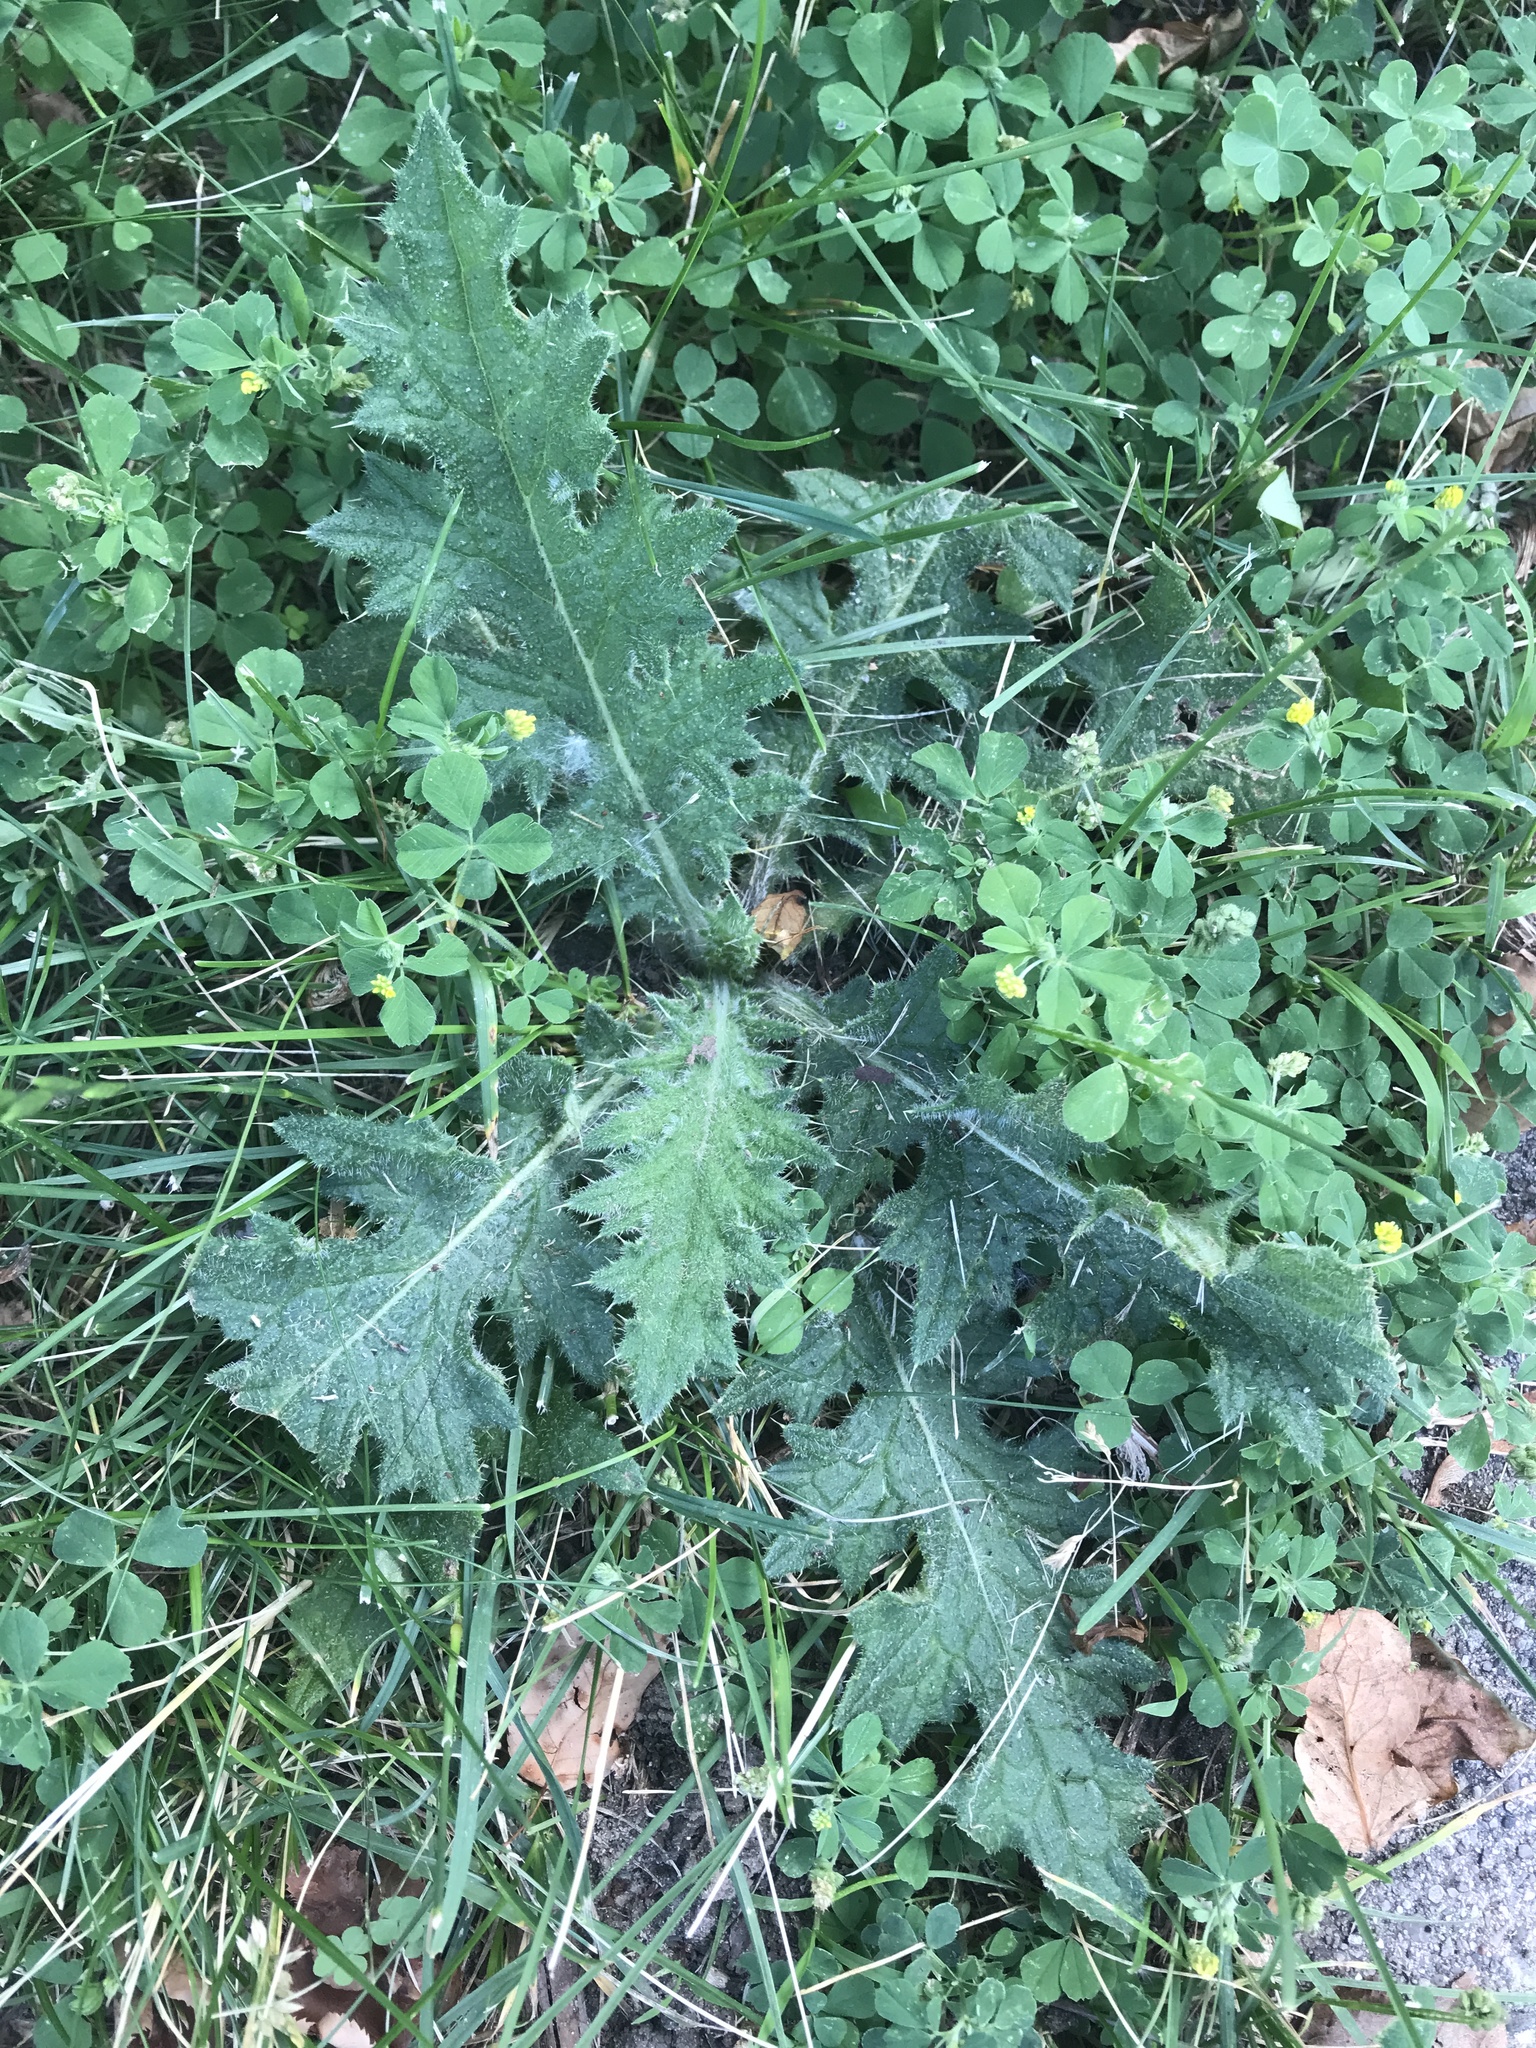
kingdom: Plantae
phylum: Tracheophyta
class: Magnoliopsida
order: Asterales
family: Asteraceae
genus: Cirsium
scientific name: Cirsium vulgare
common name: Bull thistle
